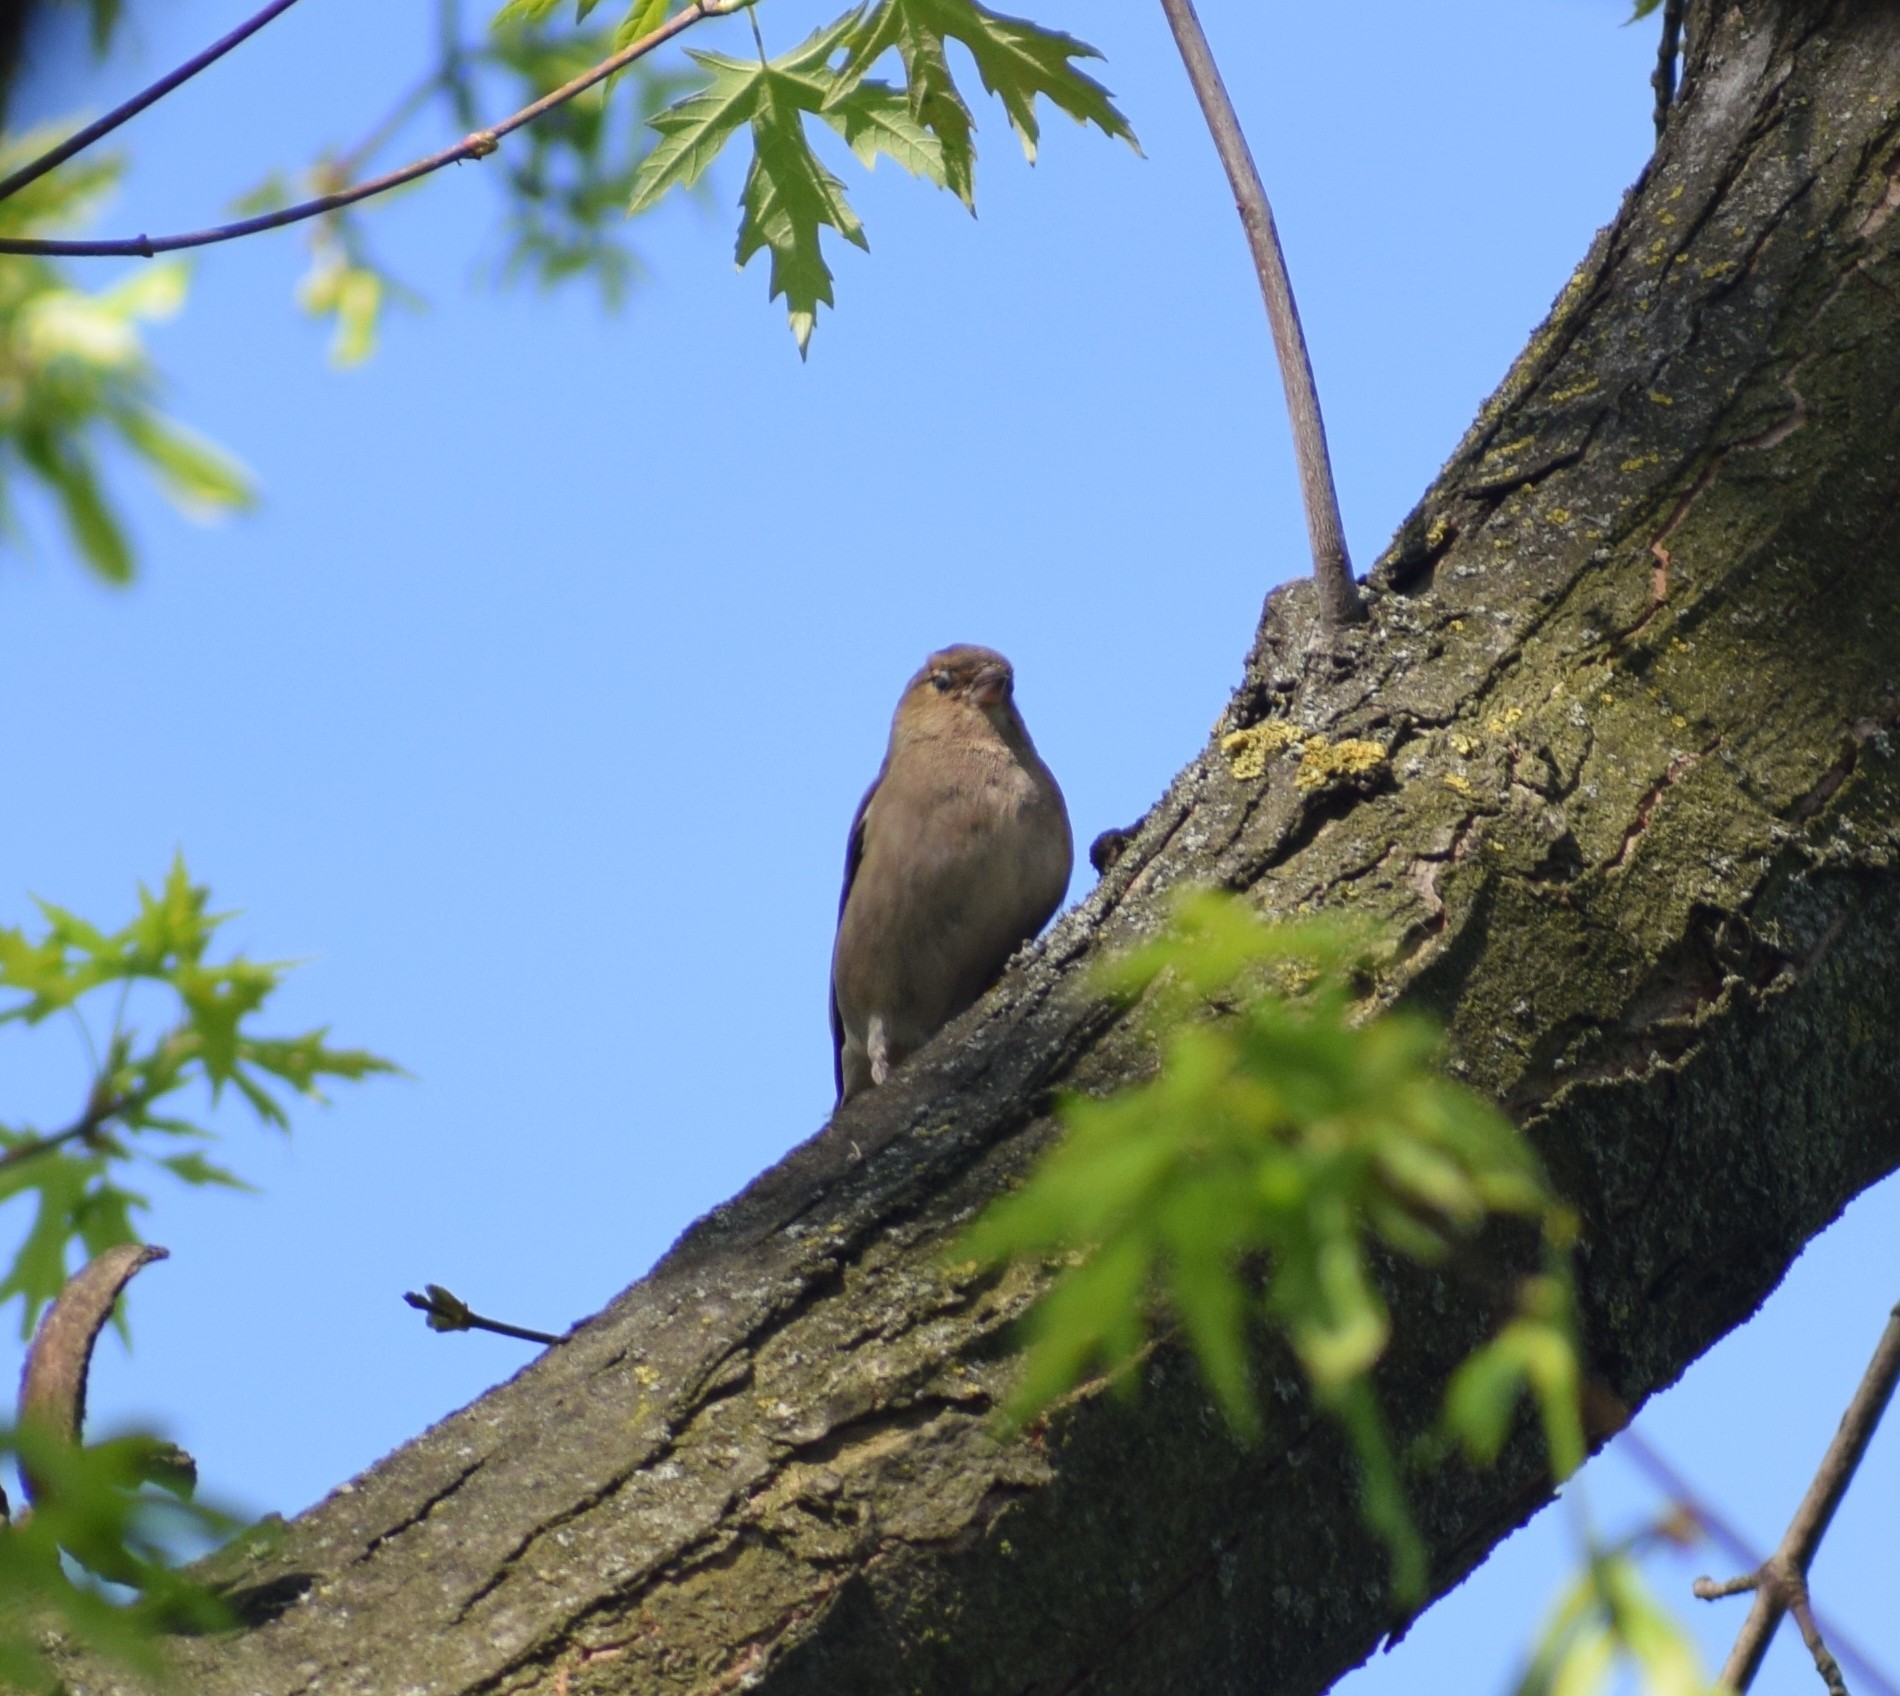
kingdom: Animalia
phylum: Chordata
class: Aves
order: Passeriformes
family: Fringillidae
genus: Fringilla
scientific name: Fringilla coelebs
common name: Common chaffinch
